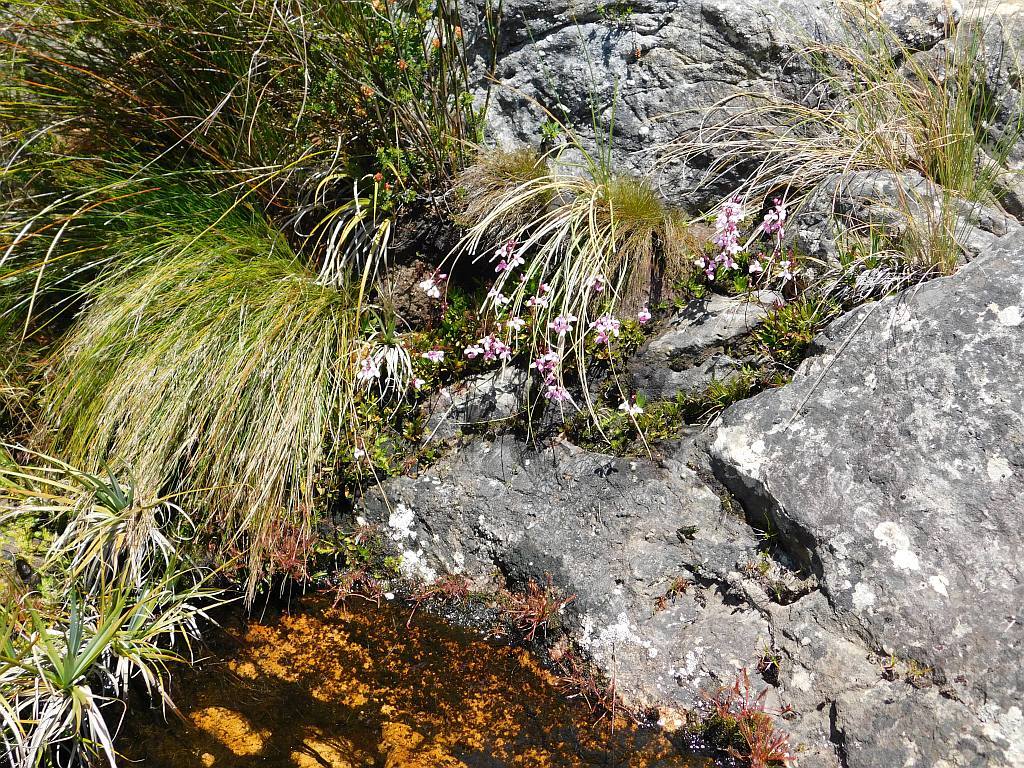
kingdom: Plantae
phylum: Tracheophyta
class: Liliopsida
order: Asparagales
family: Orchidaceae
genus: Disa
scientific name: Disa tripetaloides
